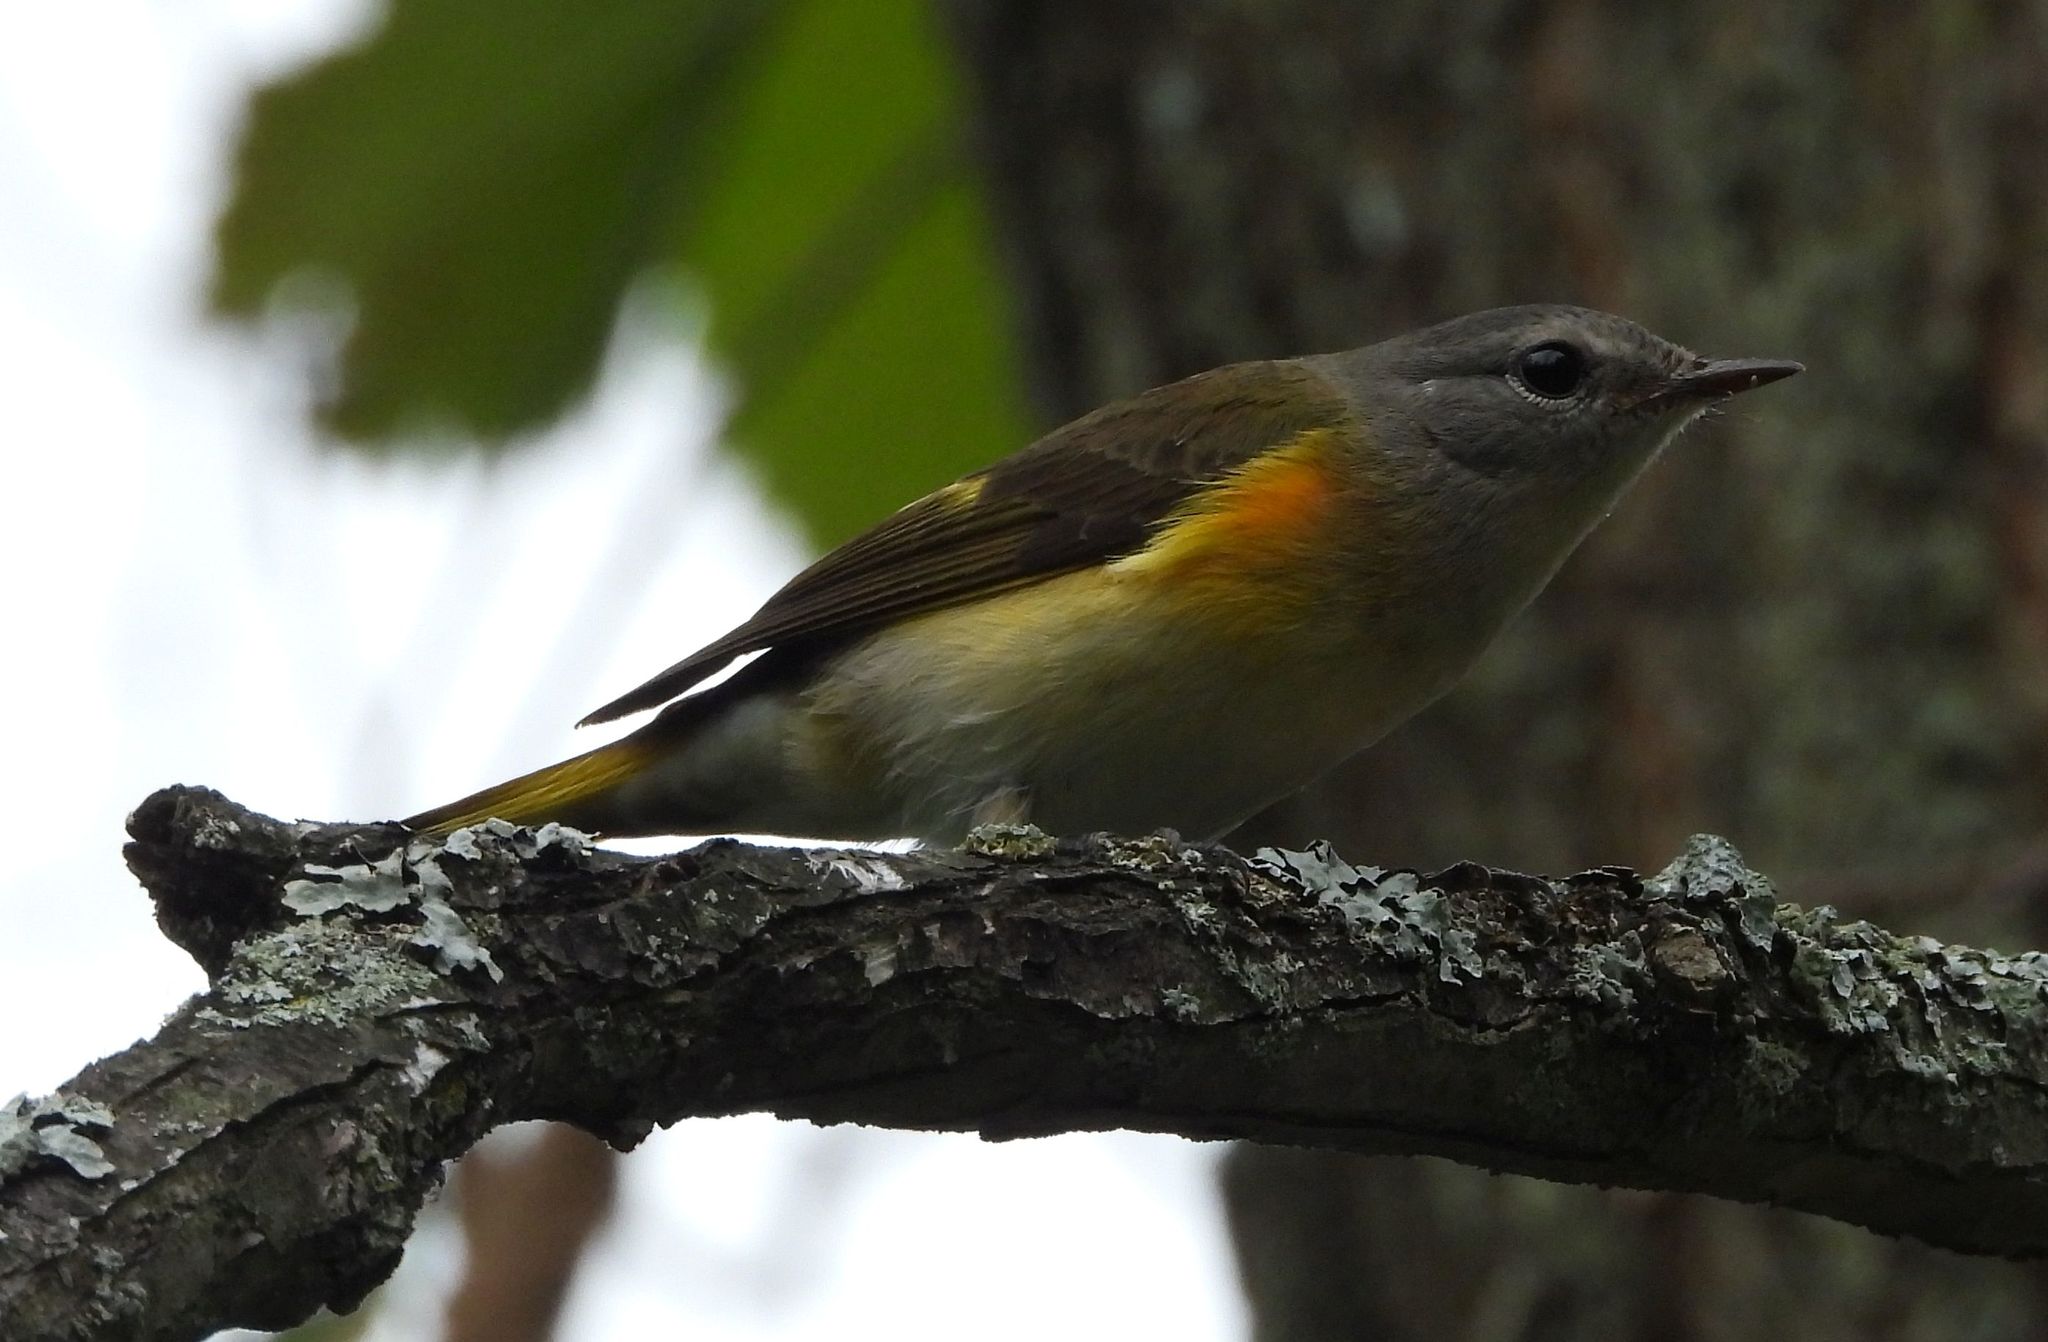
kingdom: Animalia
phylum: Chordata
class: Aves
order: Passeriformes
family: Parulidae
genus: Setophaga
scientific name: Setophaga ruticilla
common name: American redstart
